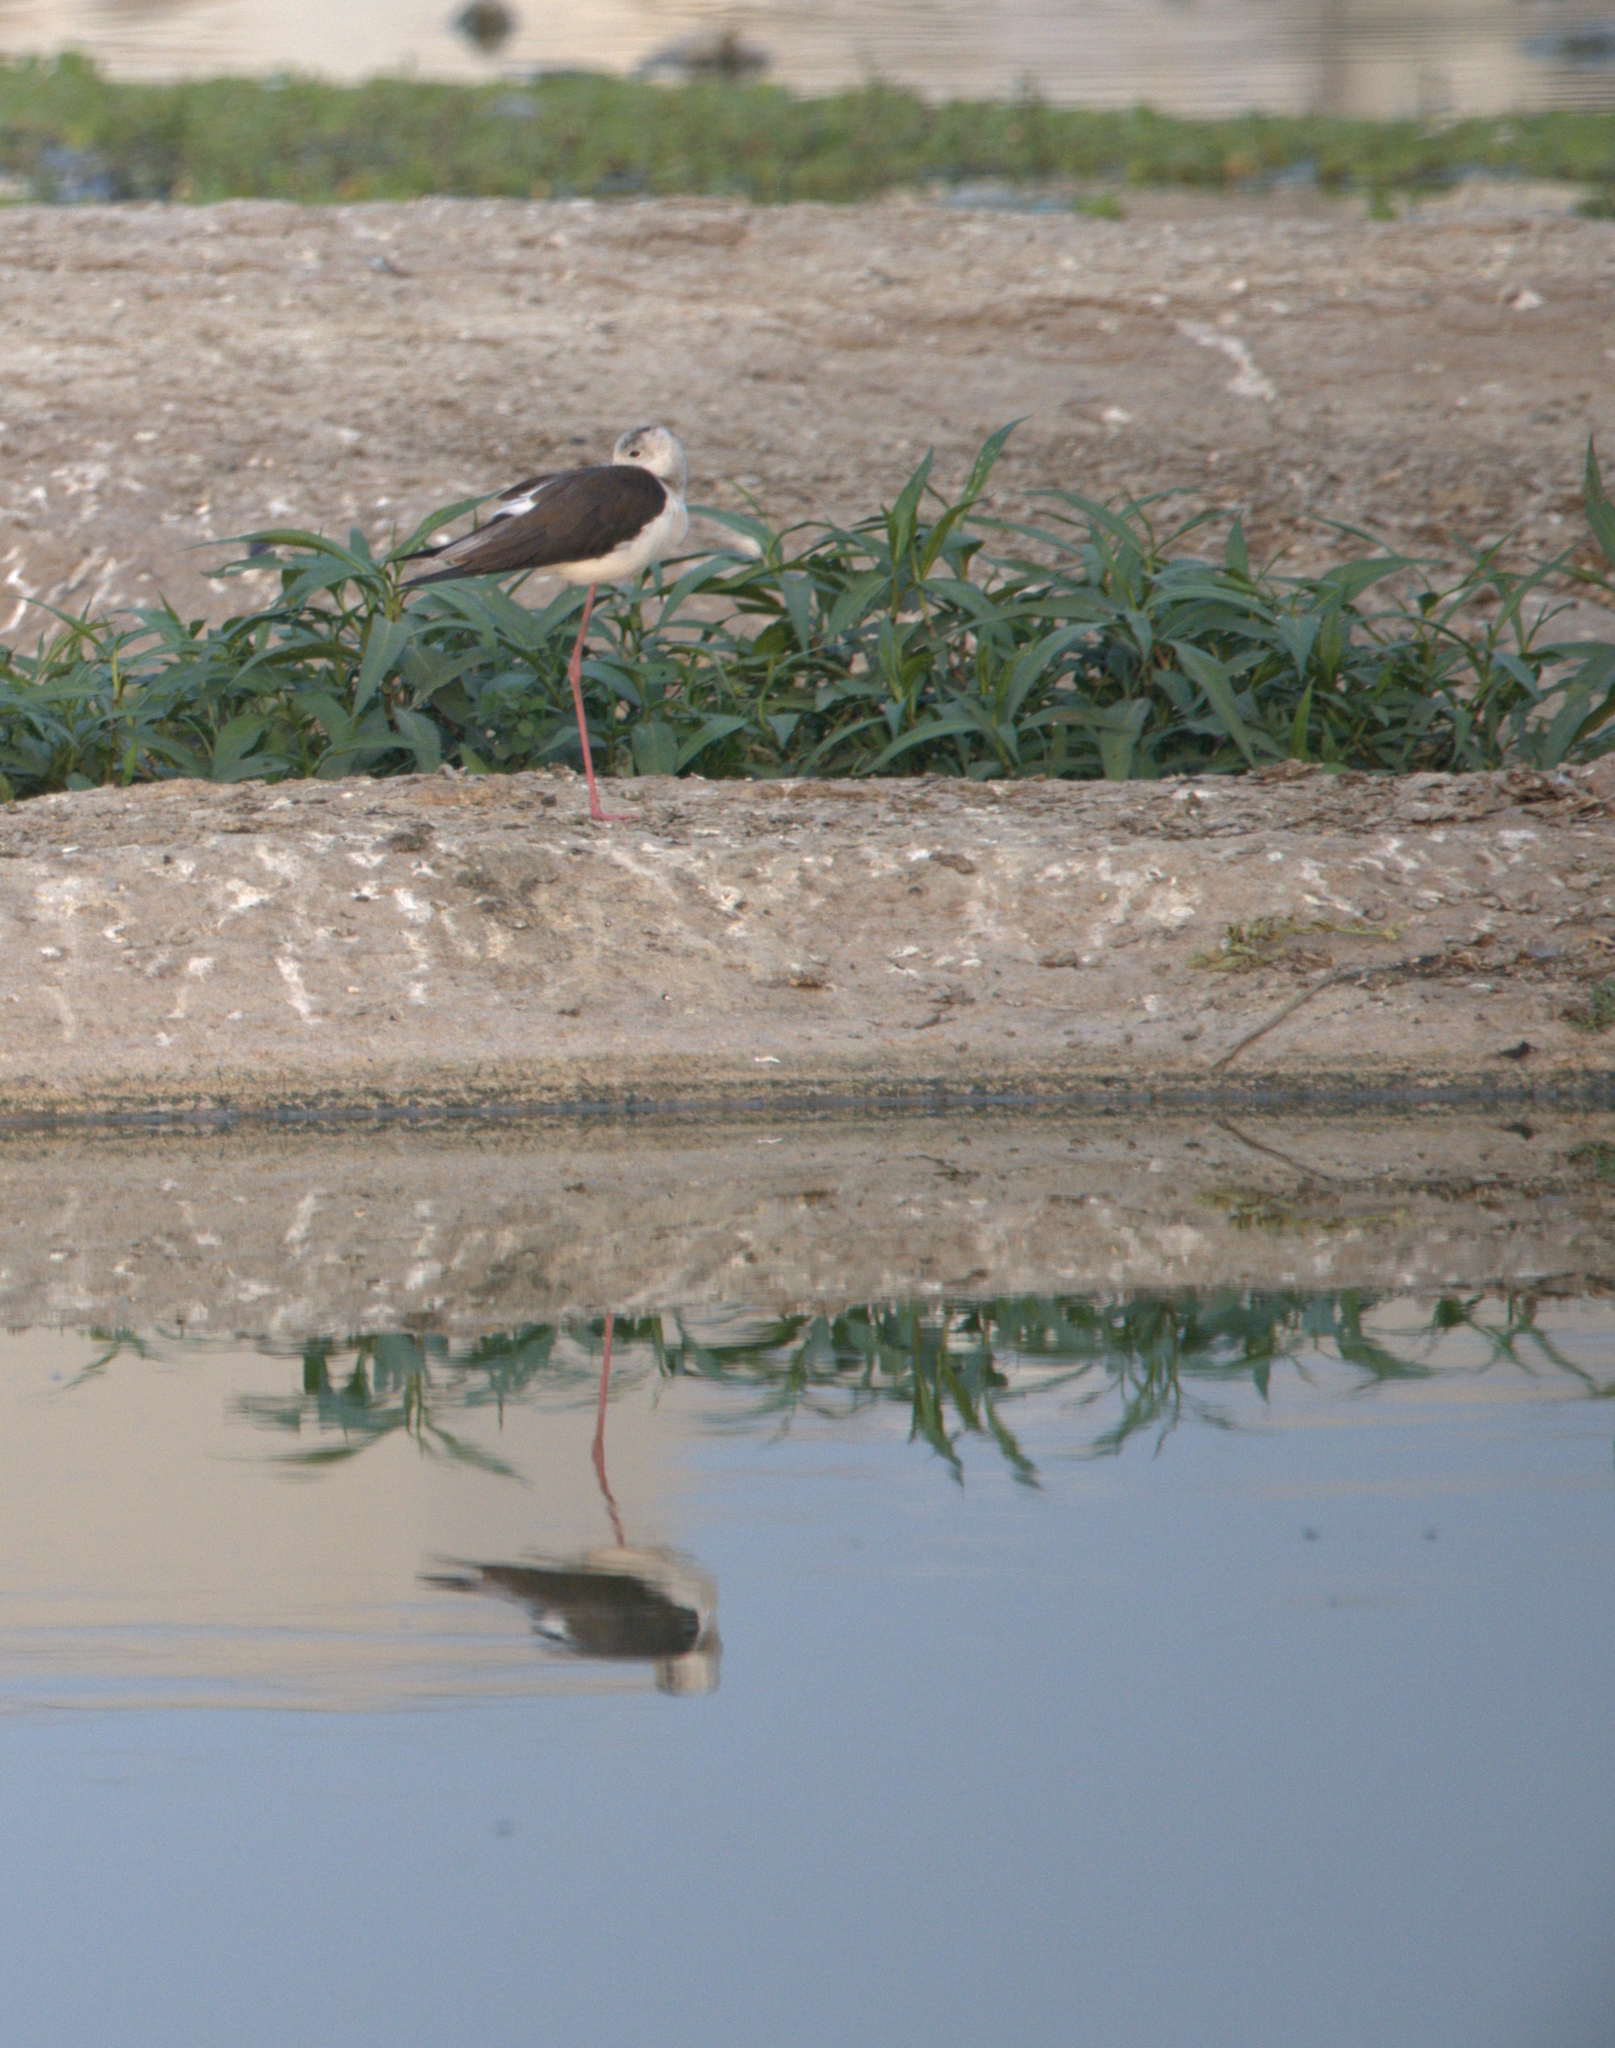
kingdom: Animalia
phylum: Chordata
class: Aves
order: Charadriiformes
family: Recurvirostridae
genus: Himantopus
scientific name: Himantopus himantopus
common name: Black-winged stilt
